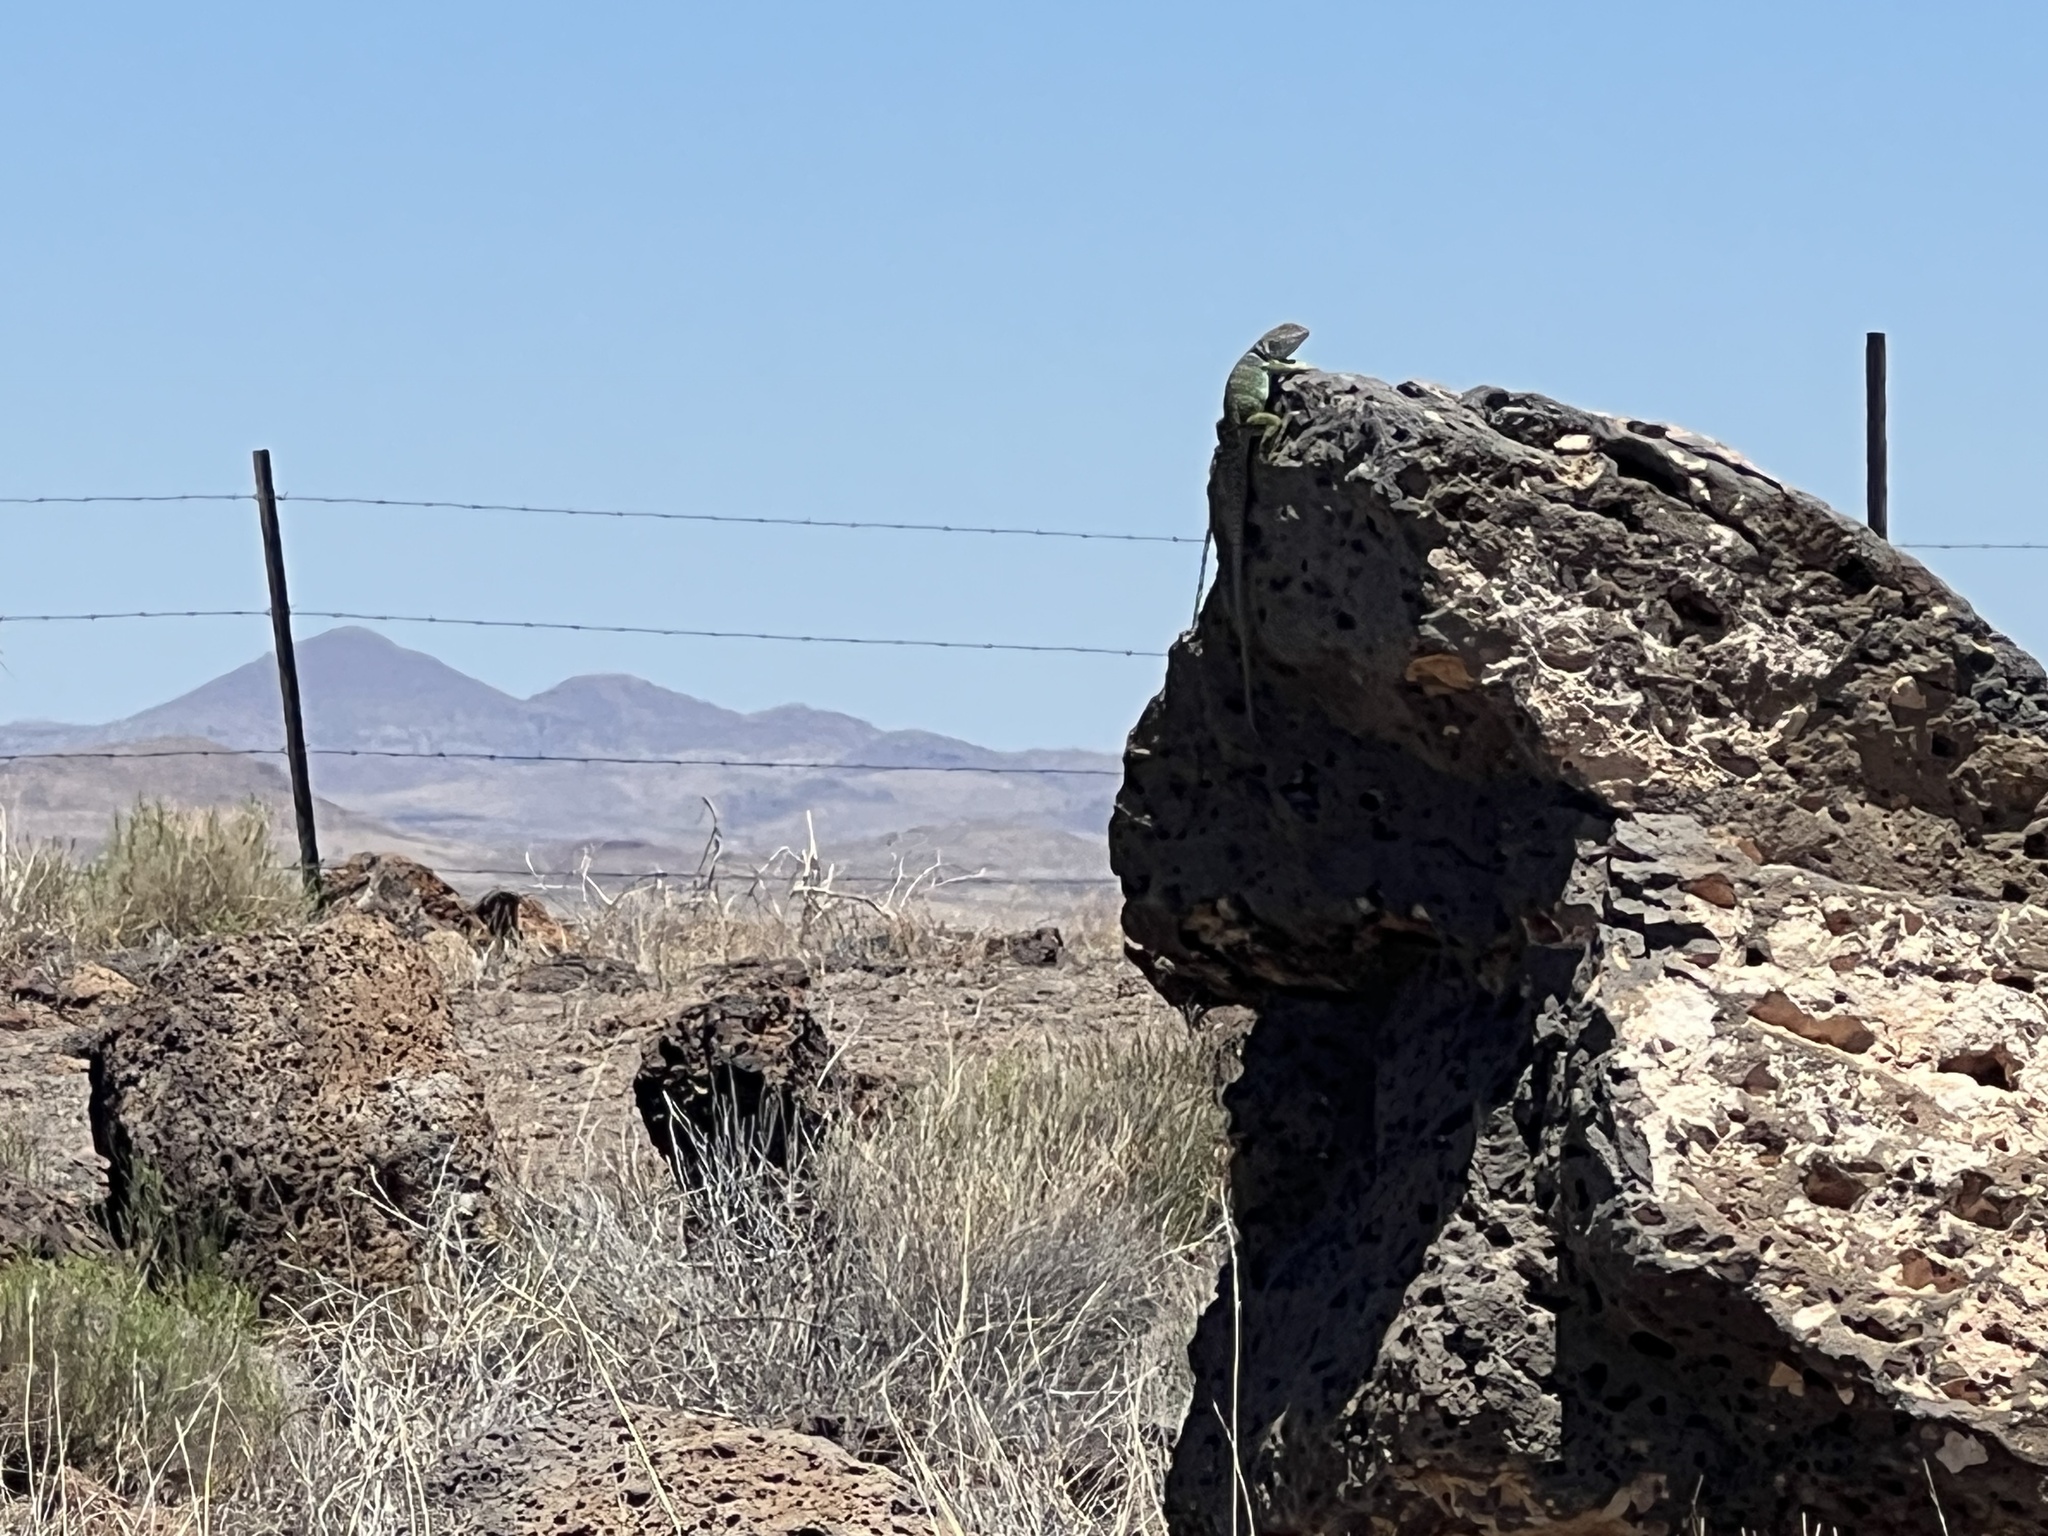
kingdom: Animalia
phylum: Chordata
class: Squamata
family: Crotaphytidae
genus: Crotaphytus
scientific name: Crotaphytus collaris
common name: Collared lizard
